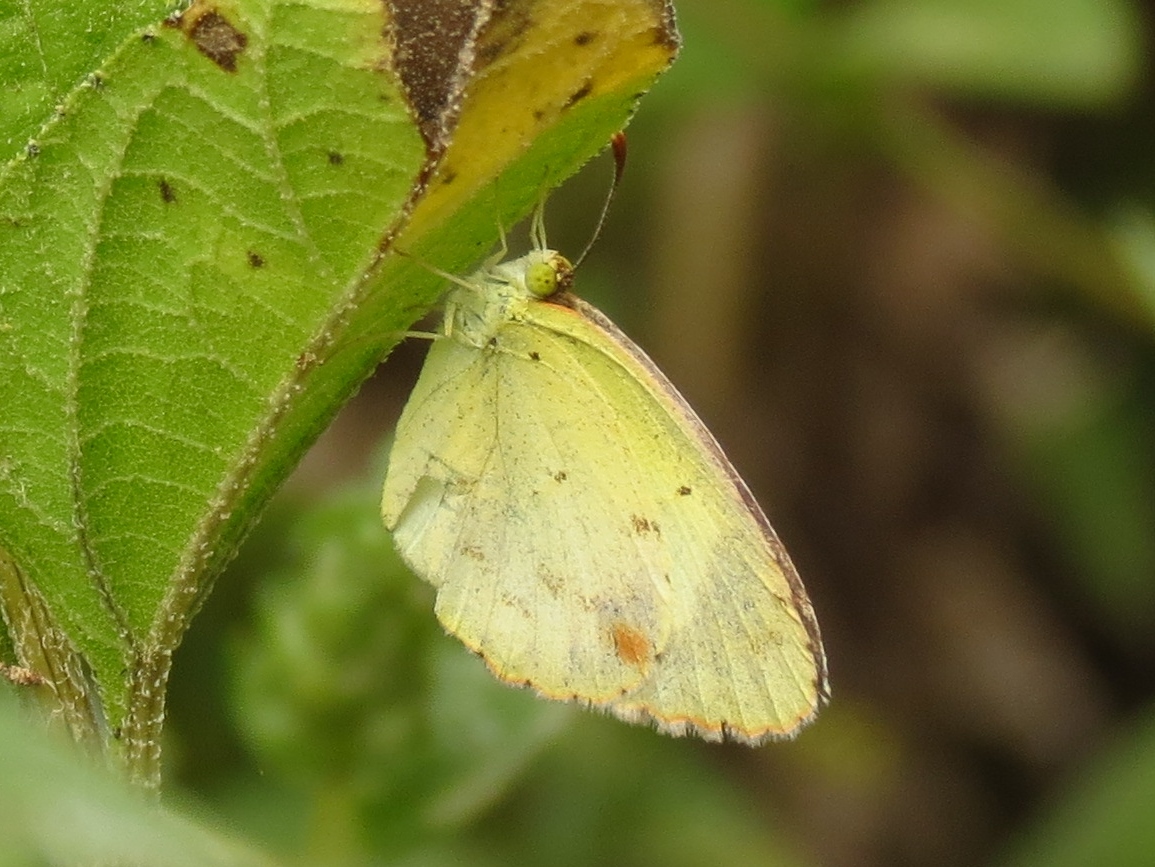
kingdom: Animalia
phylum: Arthropoda
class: Insecta
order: Lepidoptera
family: Pieridae
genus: Pyrisitia
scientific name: Pyrisitia lisa
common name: Little yellow
